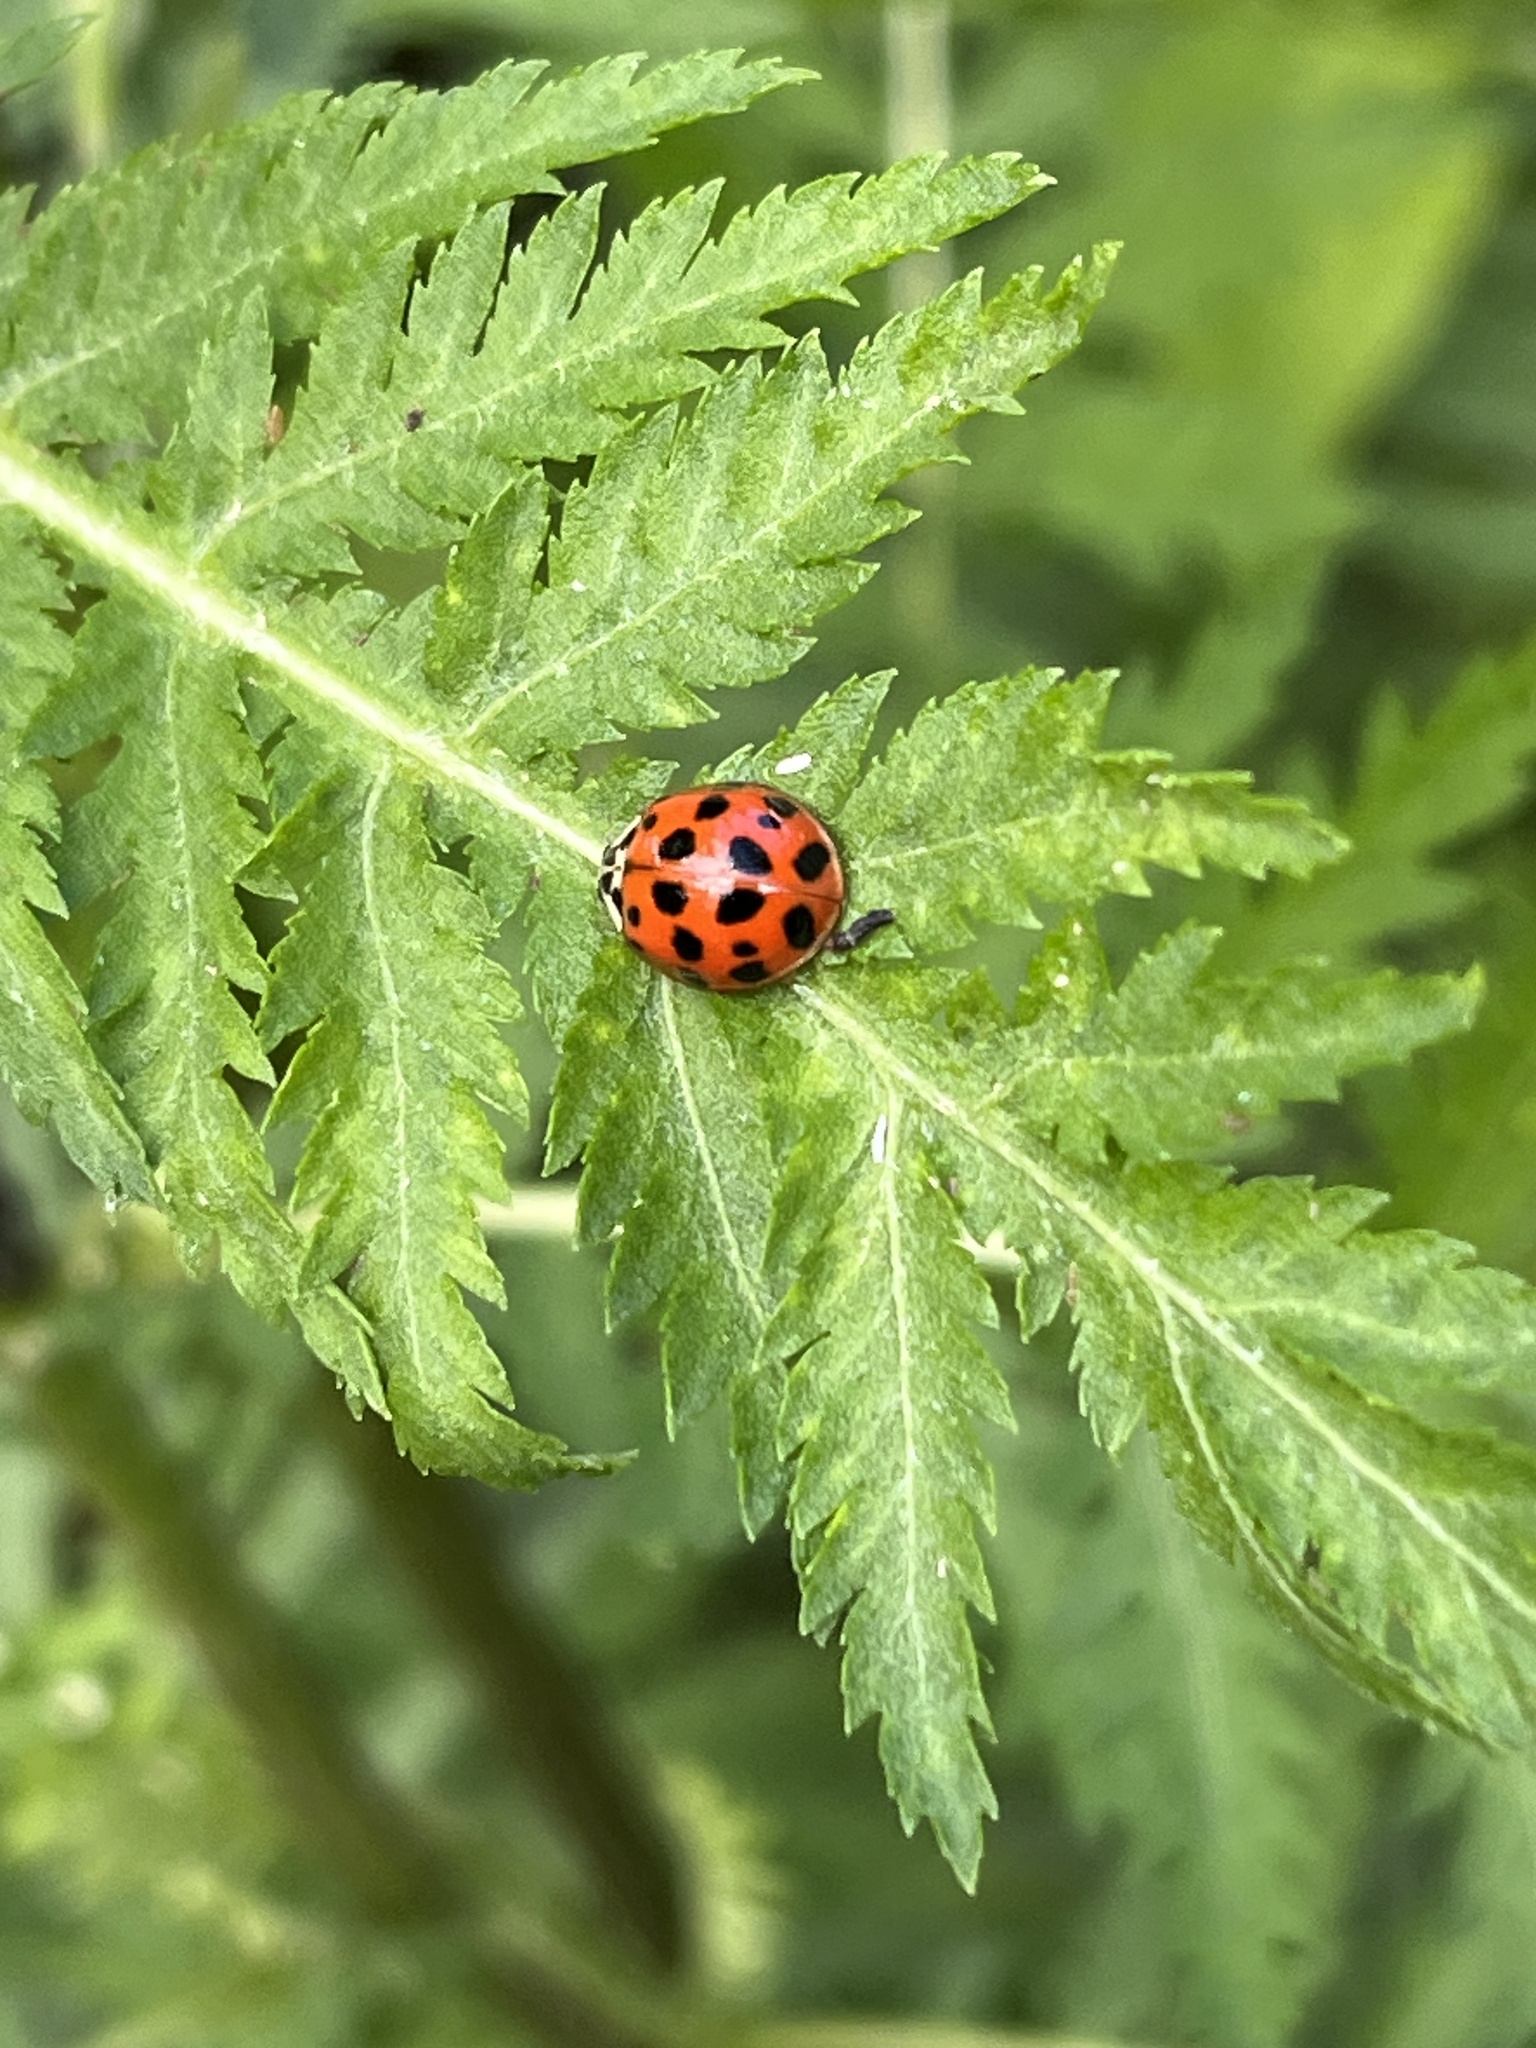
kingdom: Animalia
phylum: Arthropoda
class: Insecta
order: Coleoptera
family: Coccinellidae
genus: Harmonia
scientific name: Harmonia axyridis
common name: Harlequin ladybird
